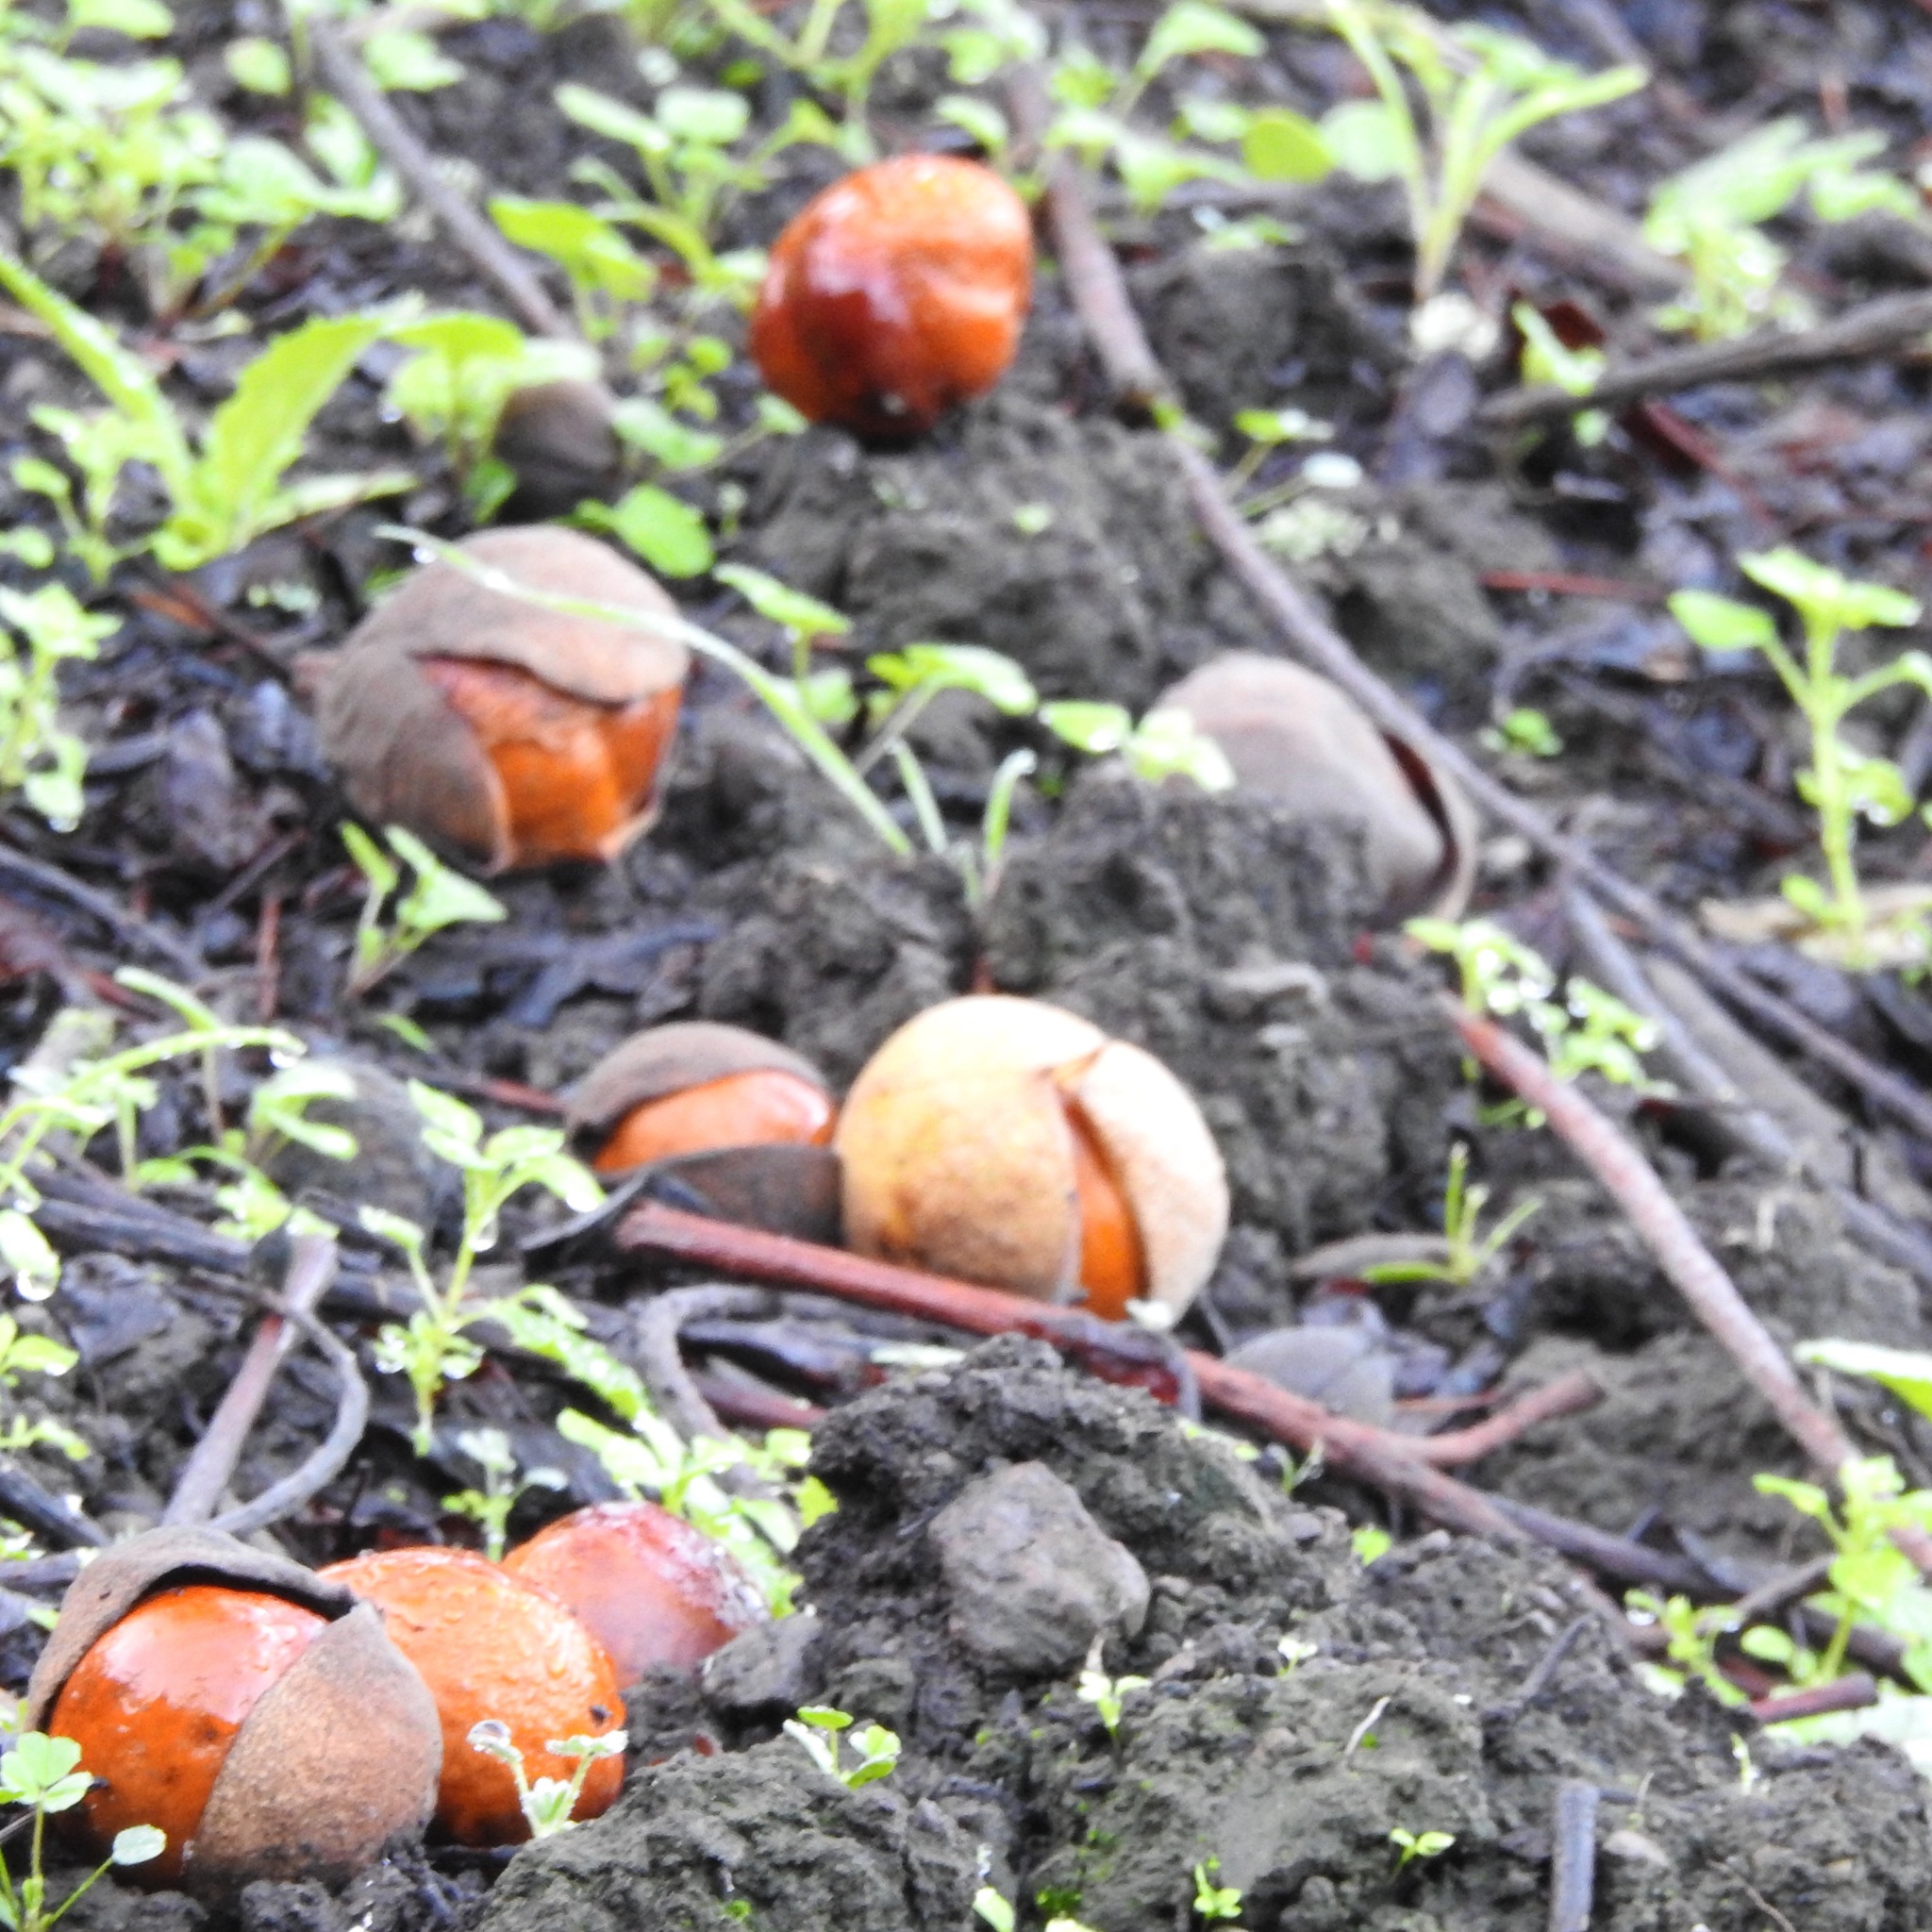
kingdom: Plantae
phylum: Tracheophyta
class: Magnoliopsida
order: Sapindales
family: Sapindaceae
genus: Aesculus
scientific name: Aesculus californica
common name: California buckeye
